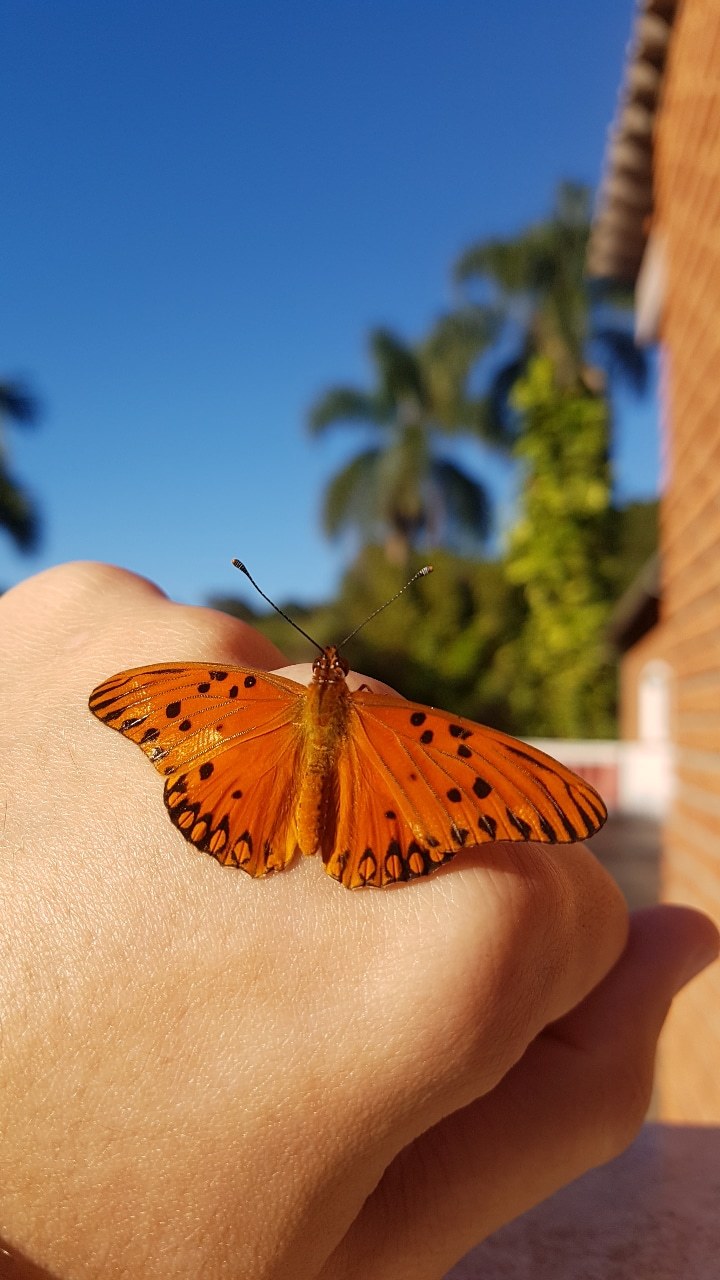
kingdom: Animalia
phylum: Arthropoda
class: Insecta
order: Lepidoptera
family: Nymphalidae
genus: Dione
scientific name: Dione vanillae
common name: Gulf fritillary
